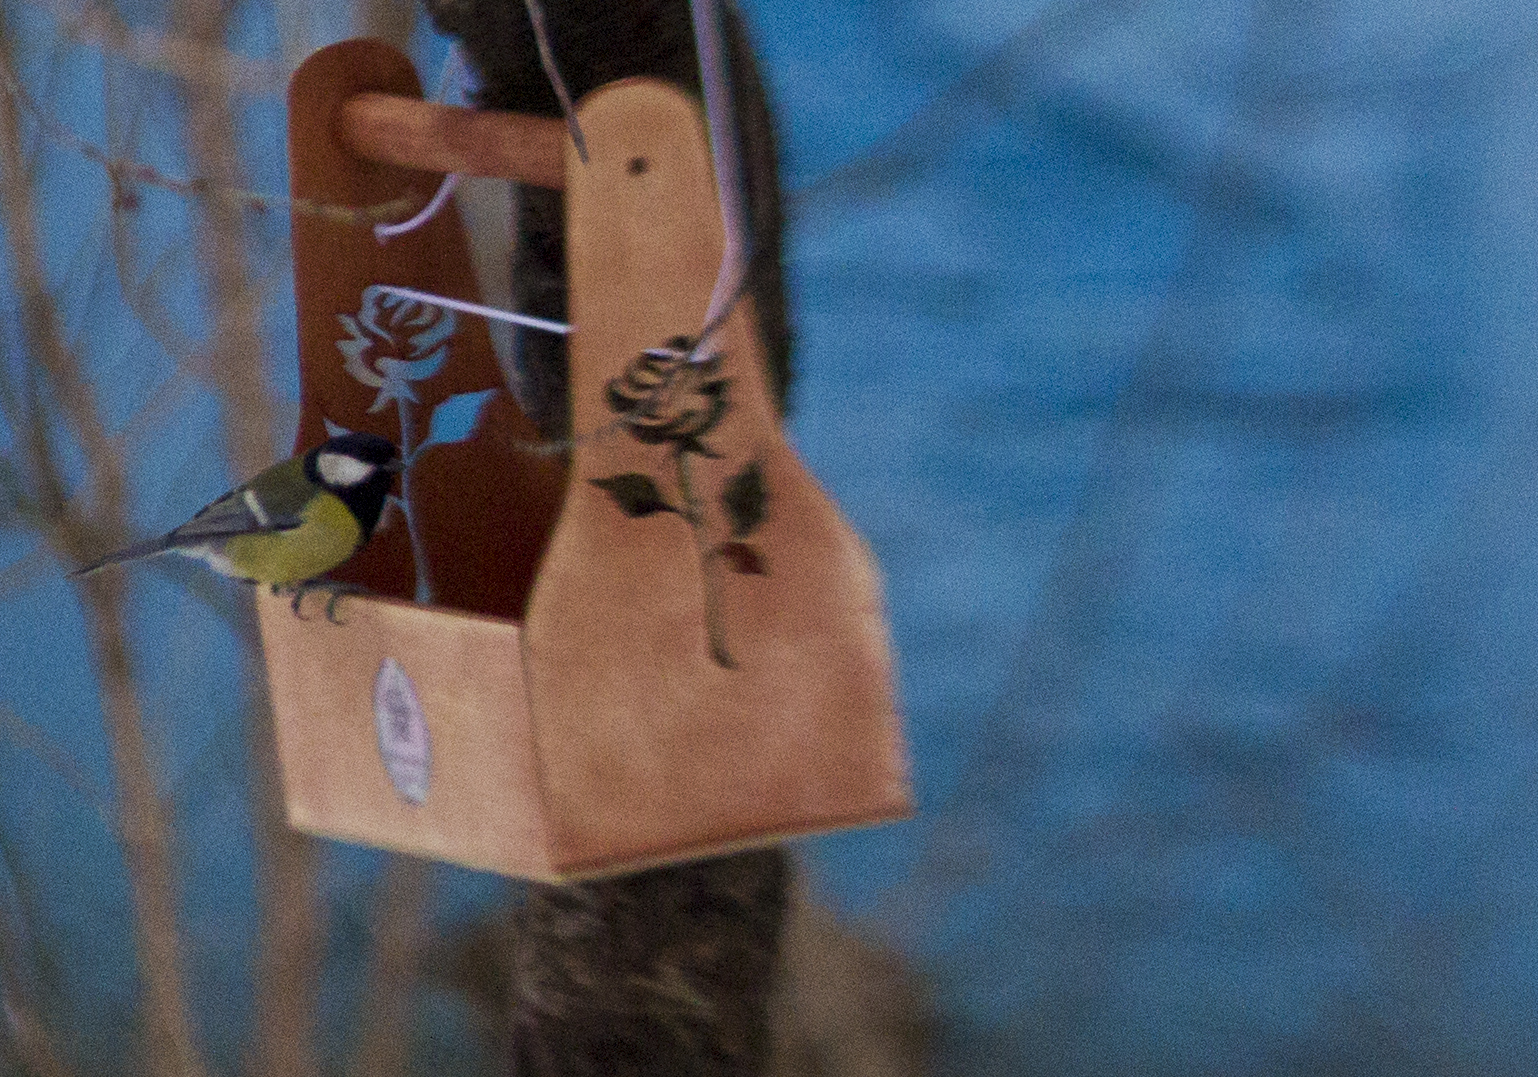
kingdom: Animalia
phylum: Chordata
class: Aves
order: Passeriformes
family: Paridae
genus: Parus
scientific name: Parus major
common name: Great tit
